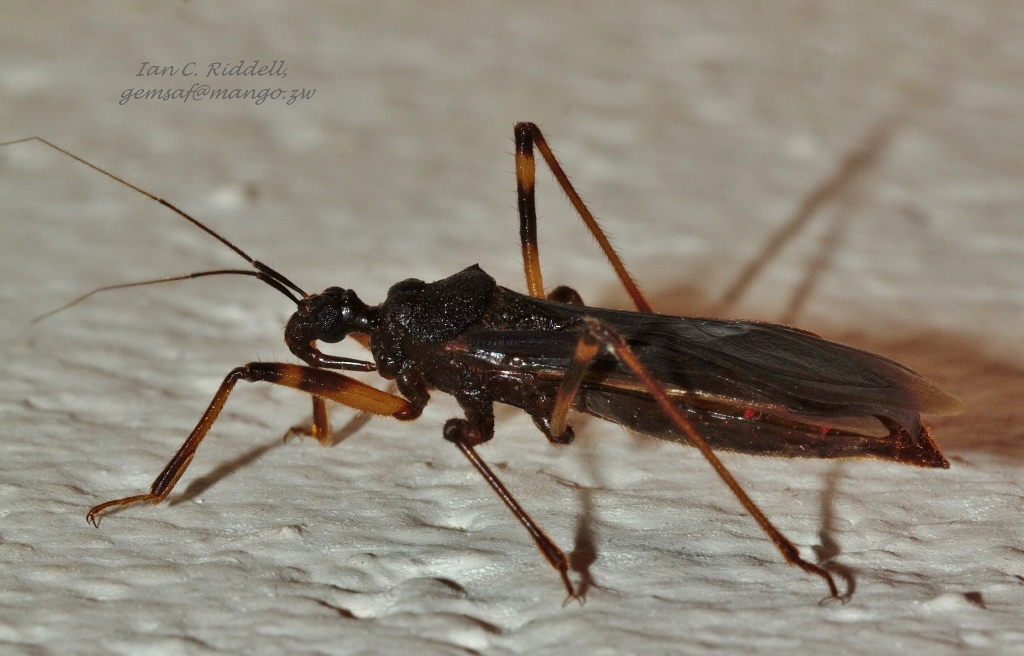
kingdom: Animalia
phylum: Arthropoda
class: Insecta
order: Hemiptera
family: Reduviidae
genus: Reduvius
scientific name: Reduvius tarsatus
